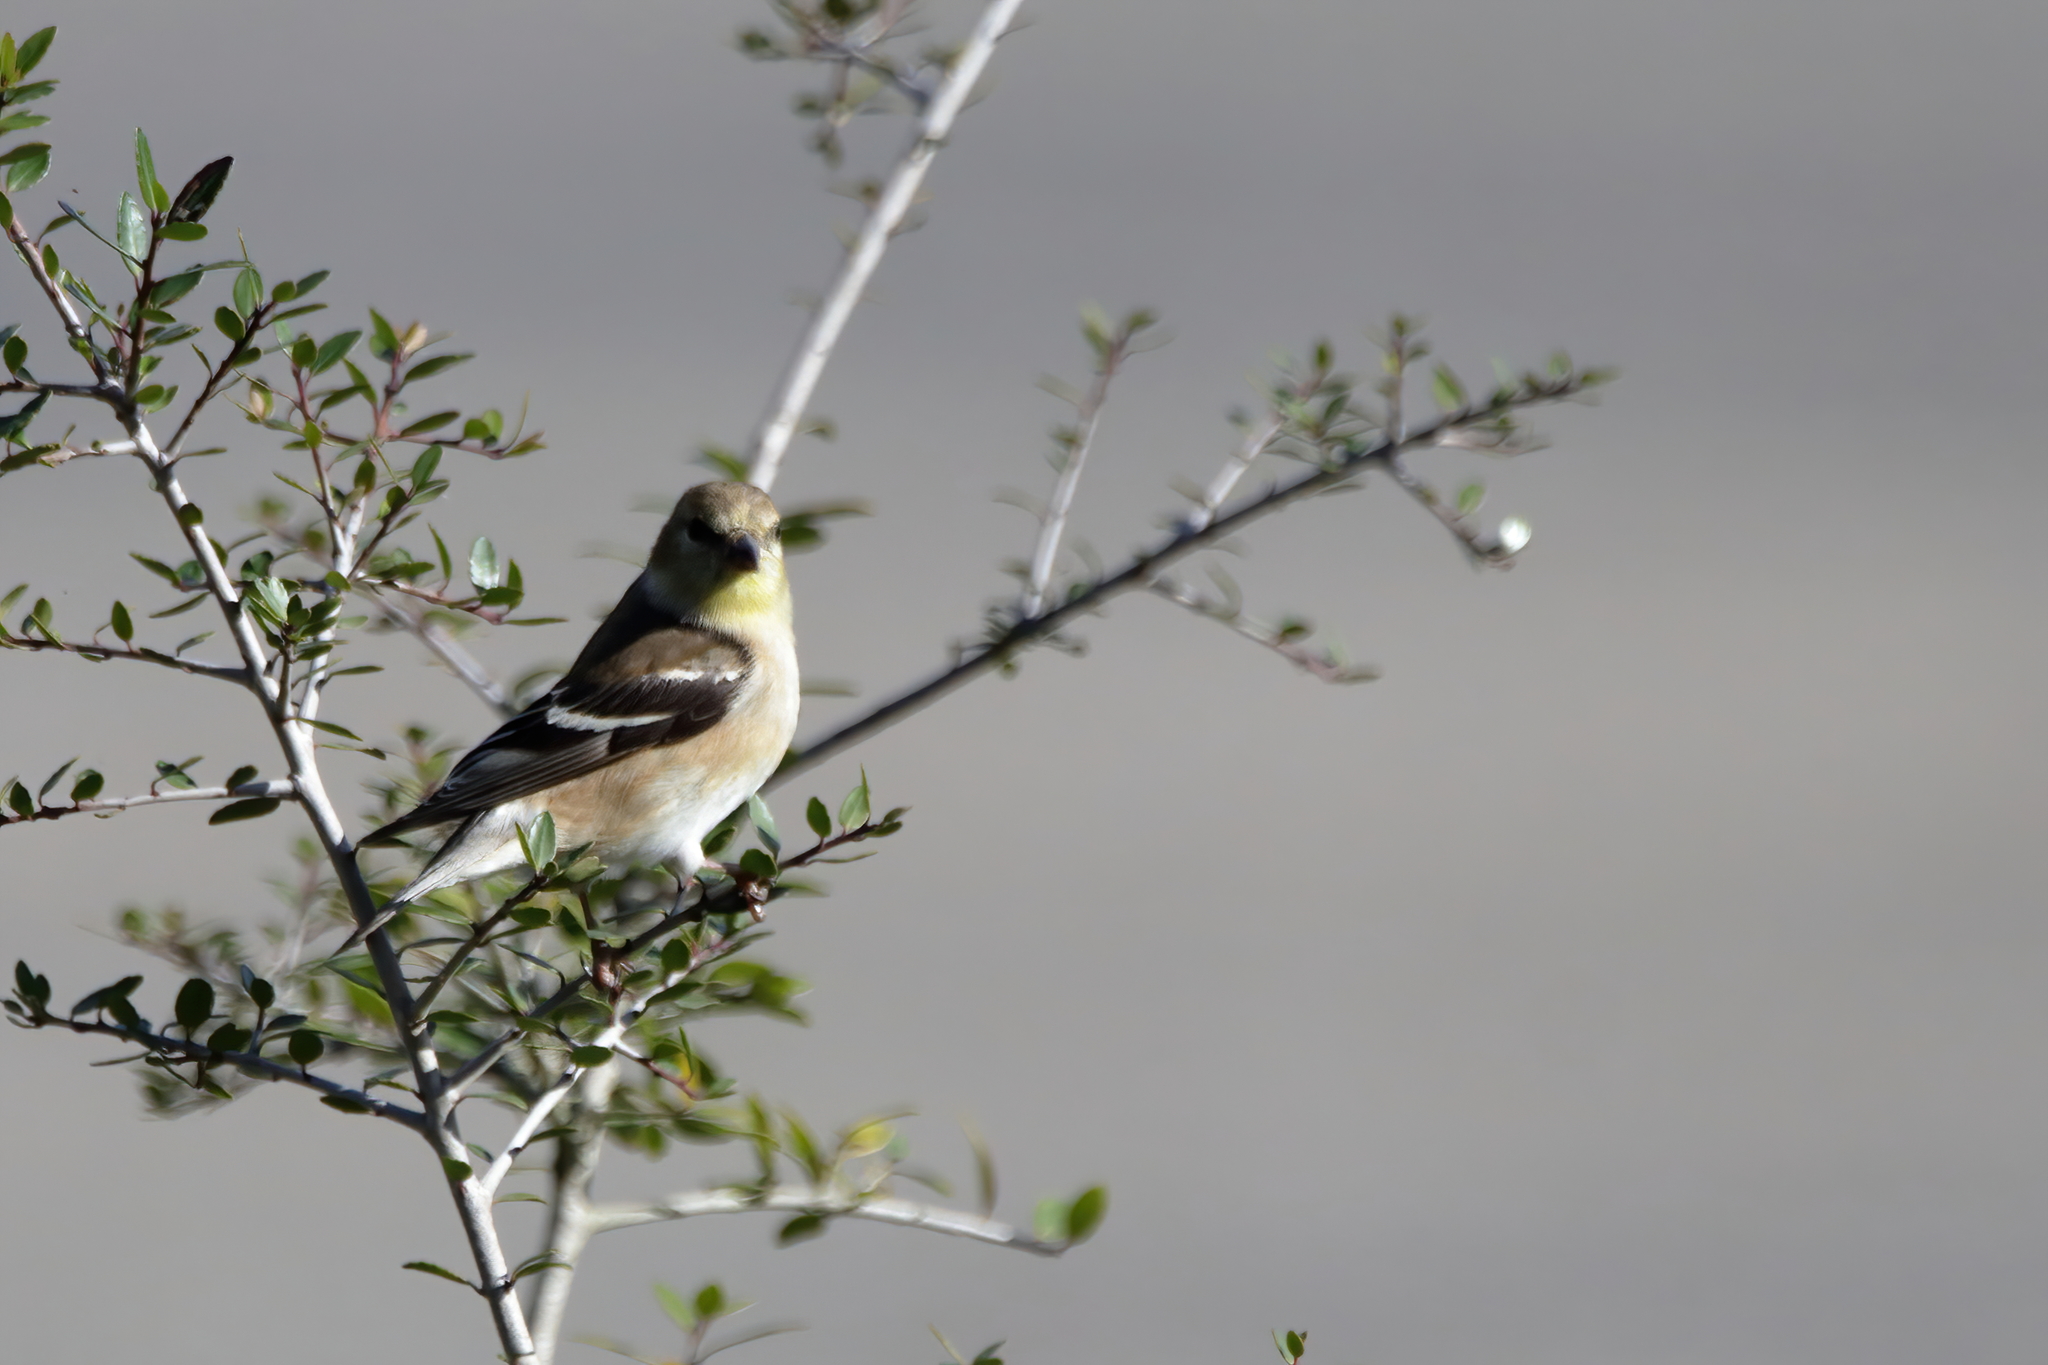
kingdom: Animalia
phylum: Chordata
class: Aves
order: Passeriformes
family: Fringillidae
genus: Spinus
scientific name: Spinus tristis
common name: American goldfinch
